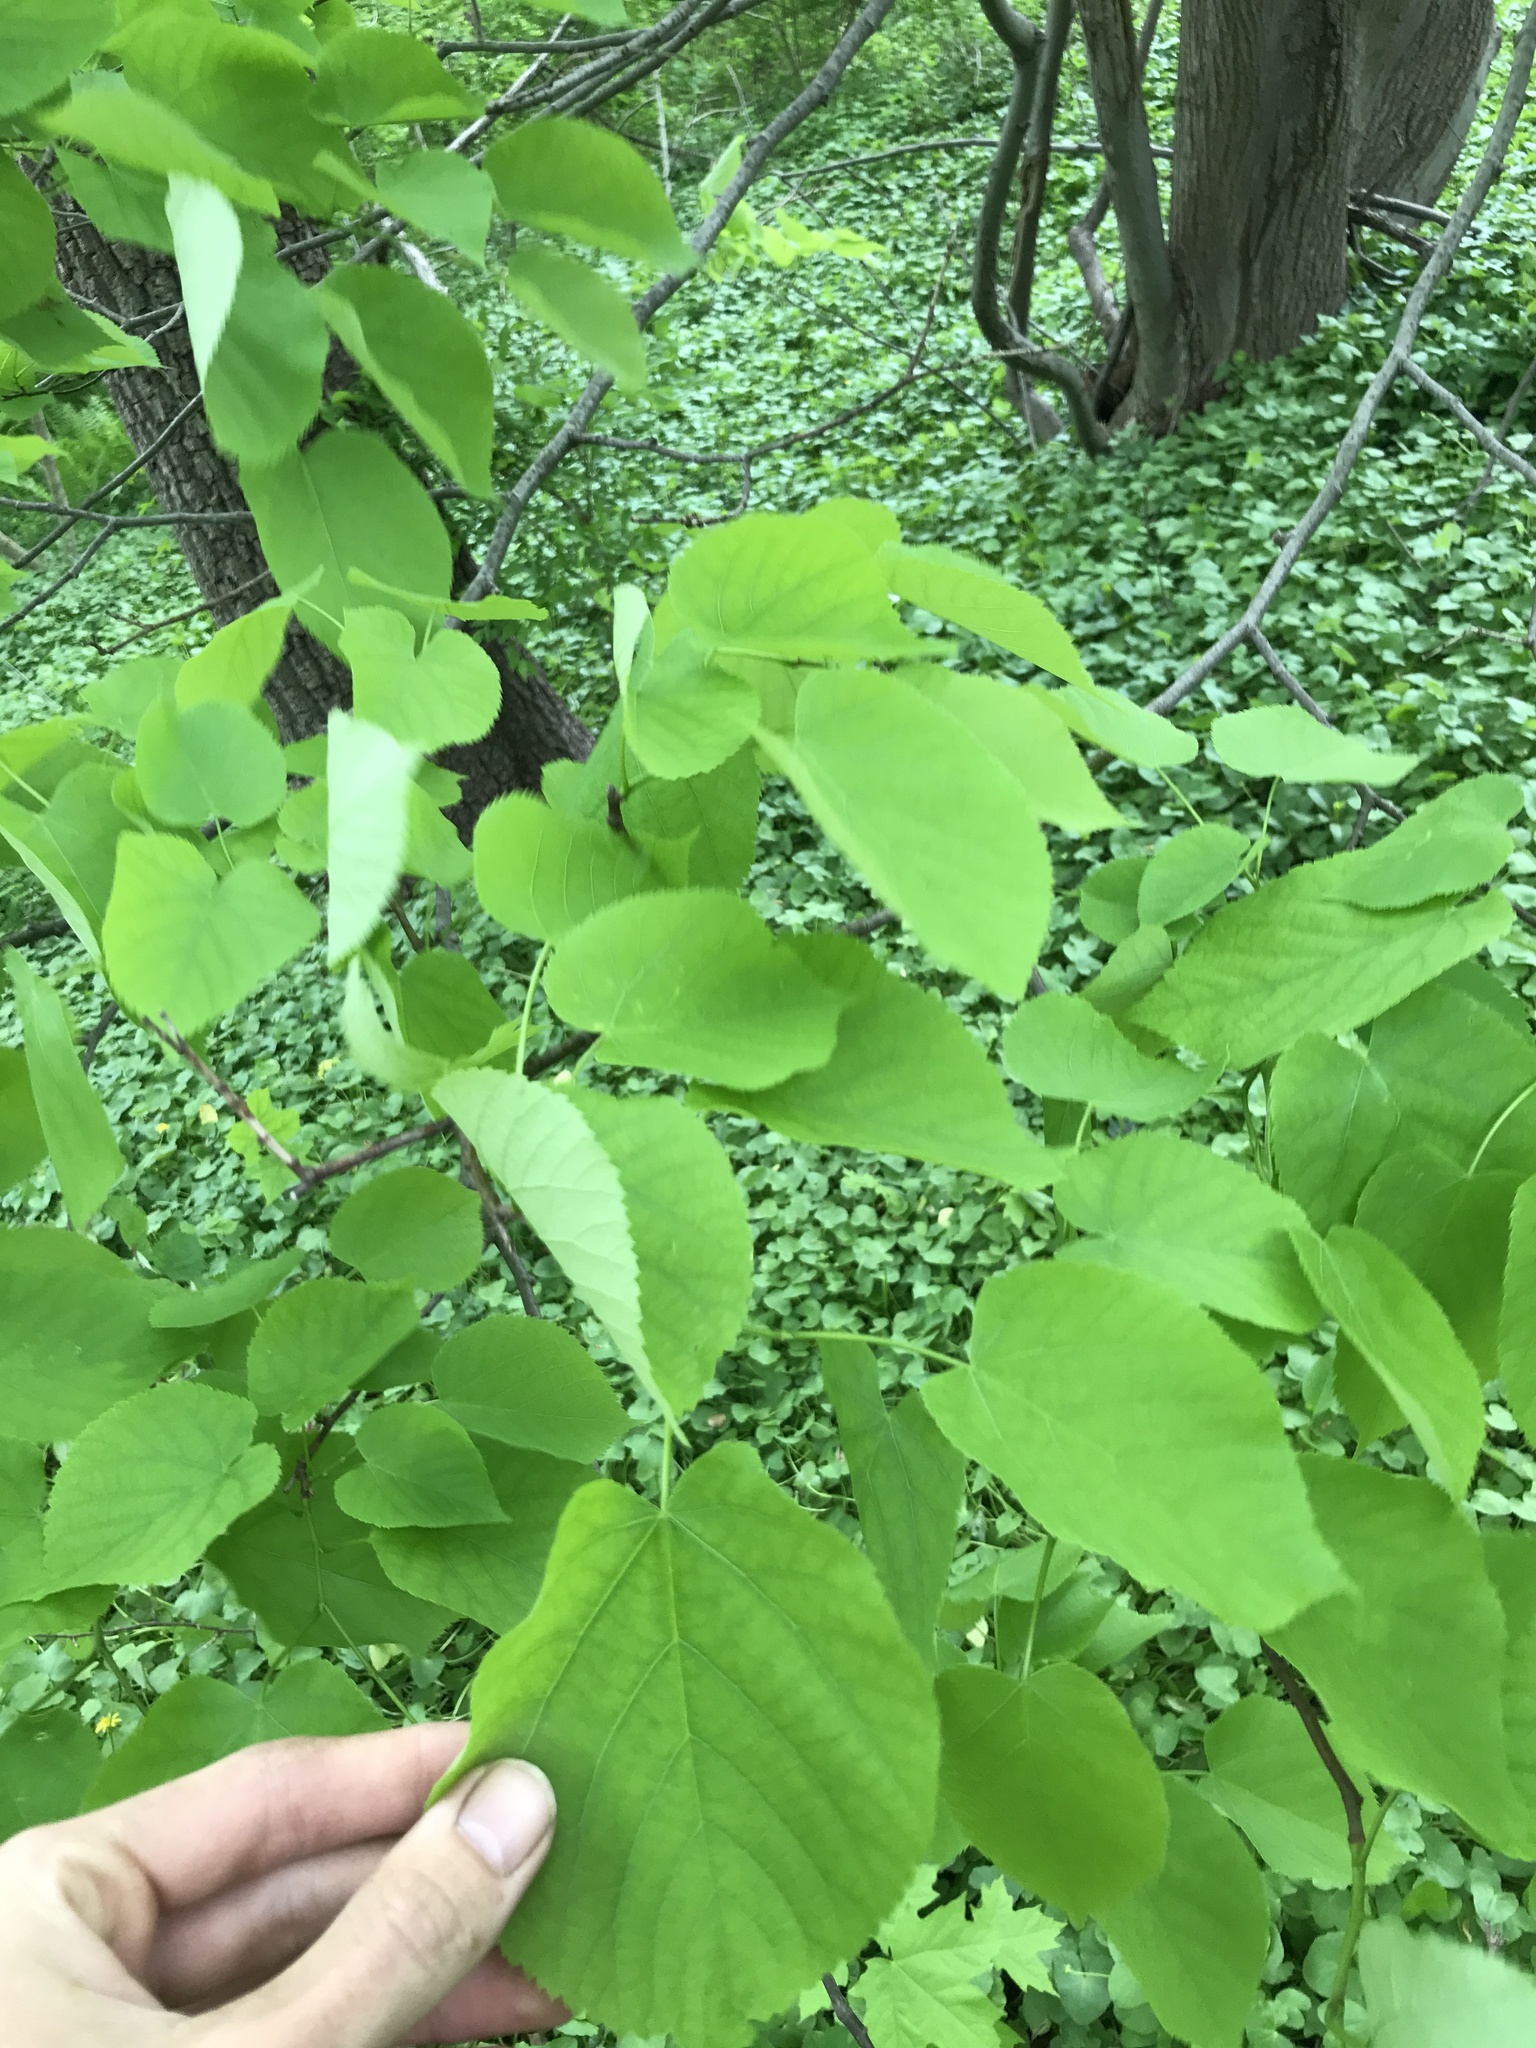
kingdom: Plantae
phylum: Tracheophyta
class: Magnoliopsida
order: Malvales
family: Malvaceae
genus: Tilia
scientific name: Tilia americana
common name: Basswood
